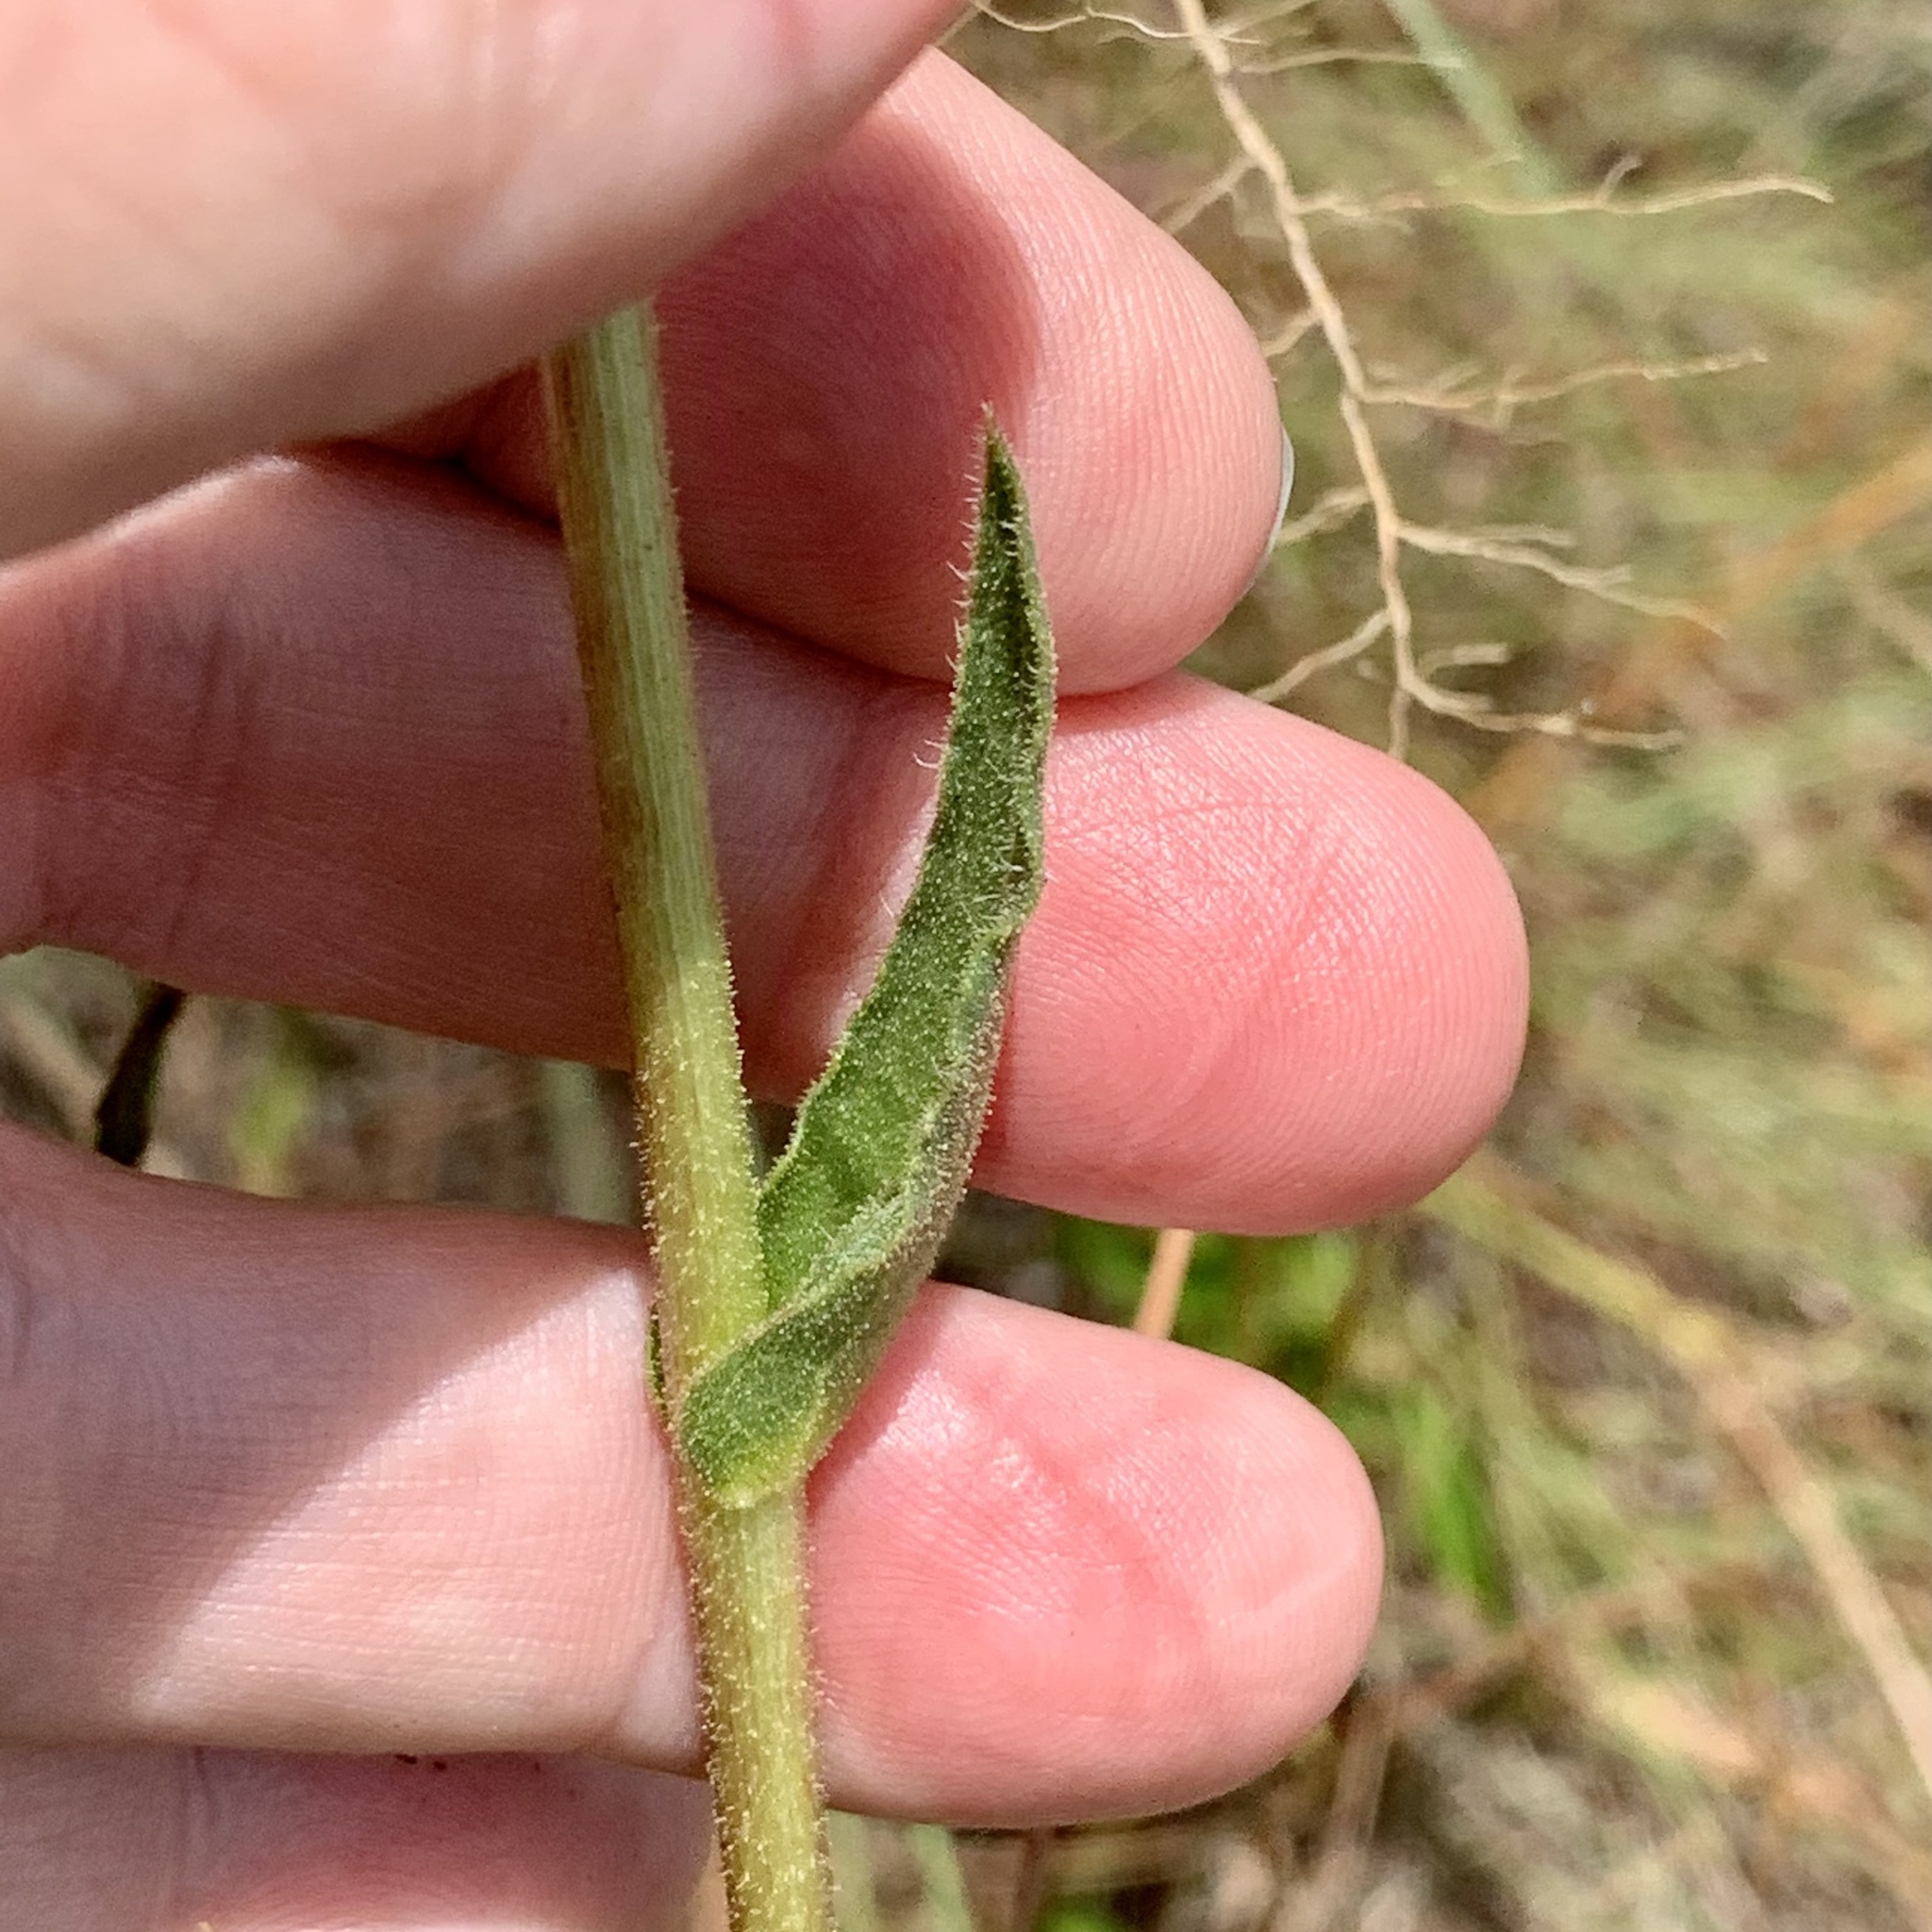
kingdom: Plantae
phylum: Tracheophyta
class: Magnoliopsida
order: Asterales
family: Asteraceae
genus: Silphium
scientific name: Silphium laciniatum
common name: Polarplant
